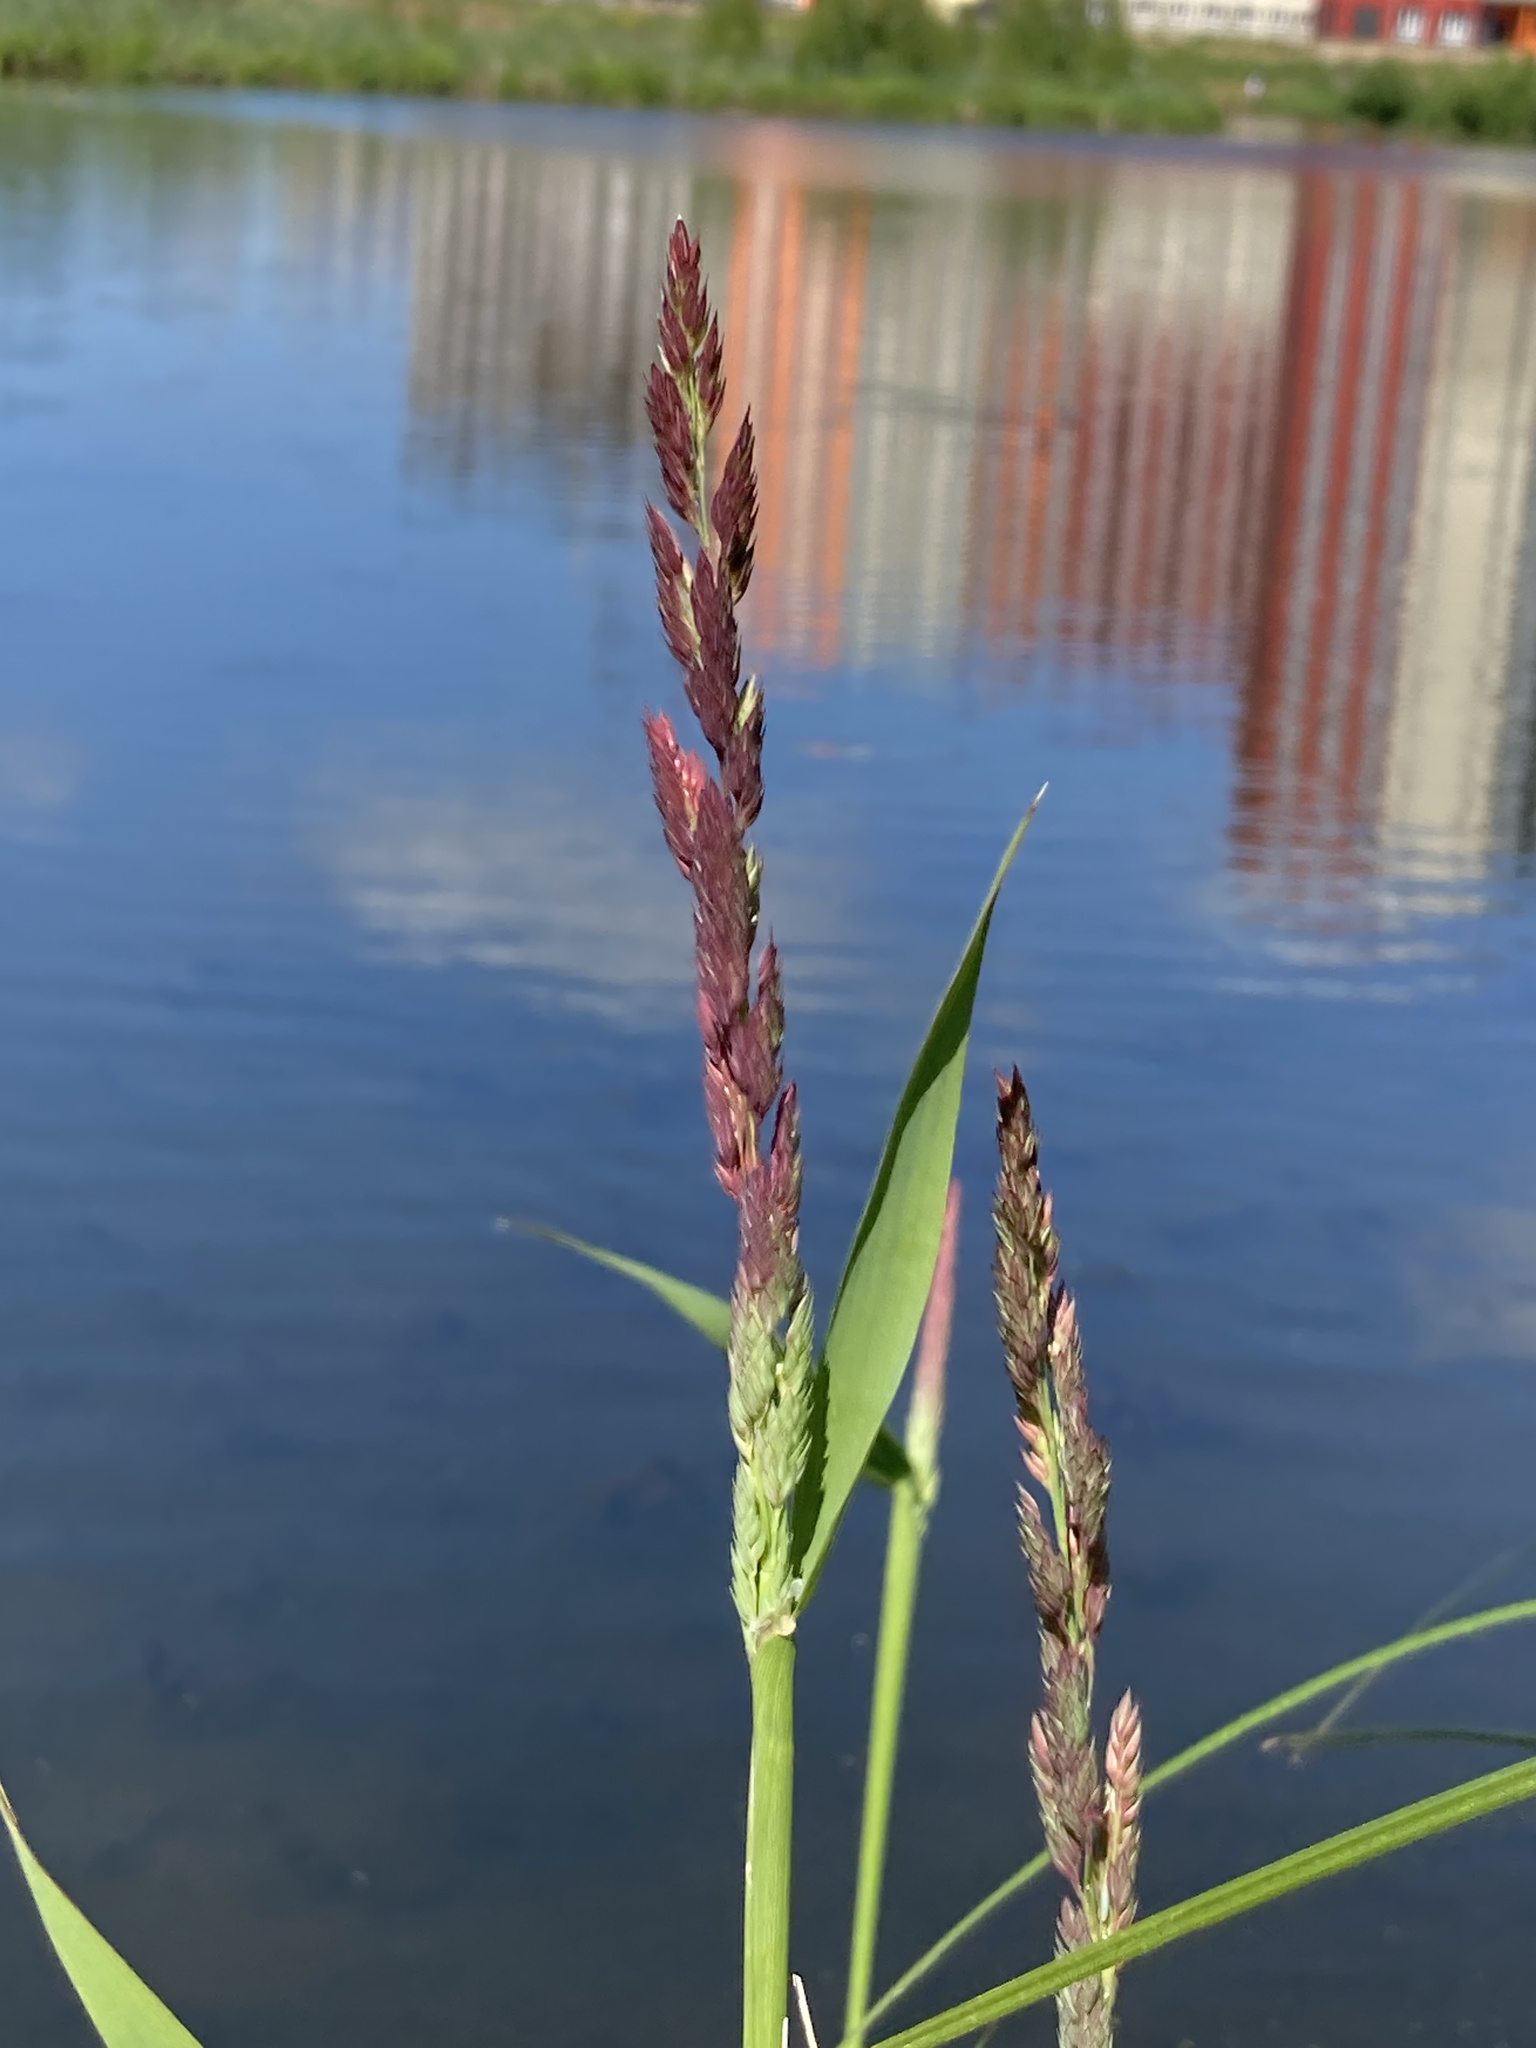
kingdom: Plantae
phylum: Tracheophyta
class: Liliopsida
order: Poales
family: Poaceae
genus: Phalaris
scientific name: Phalaris arundinacea
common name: Reed canary-grass
